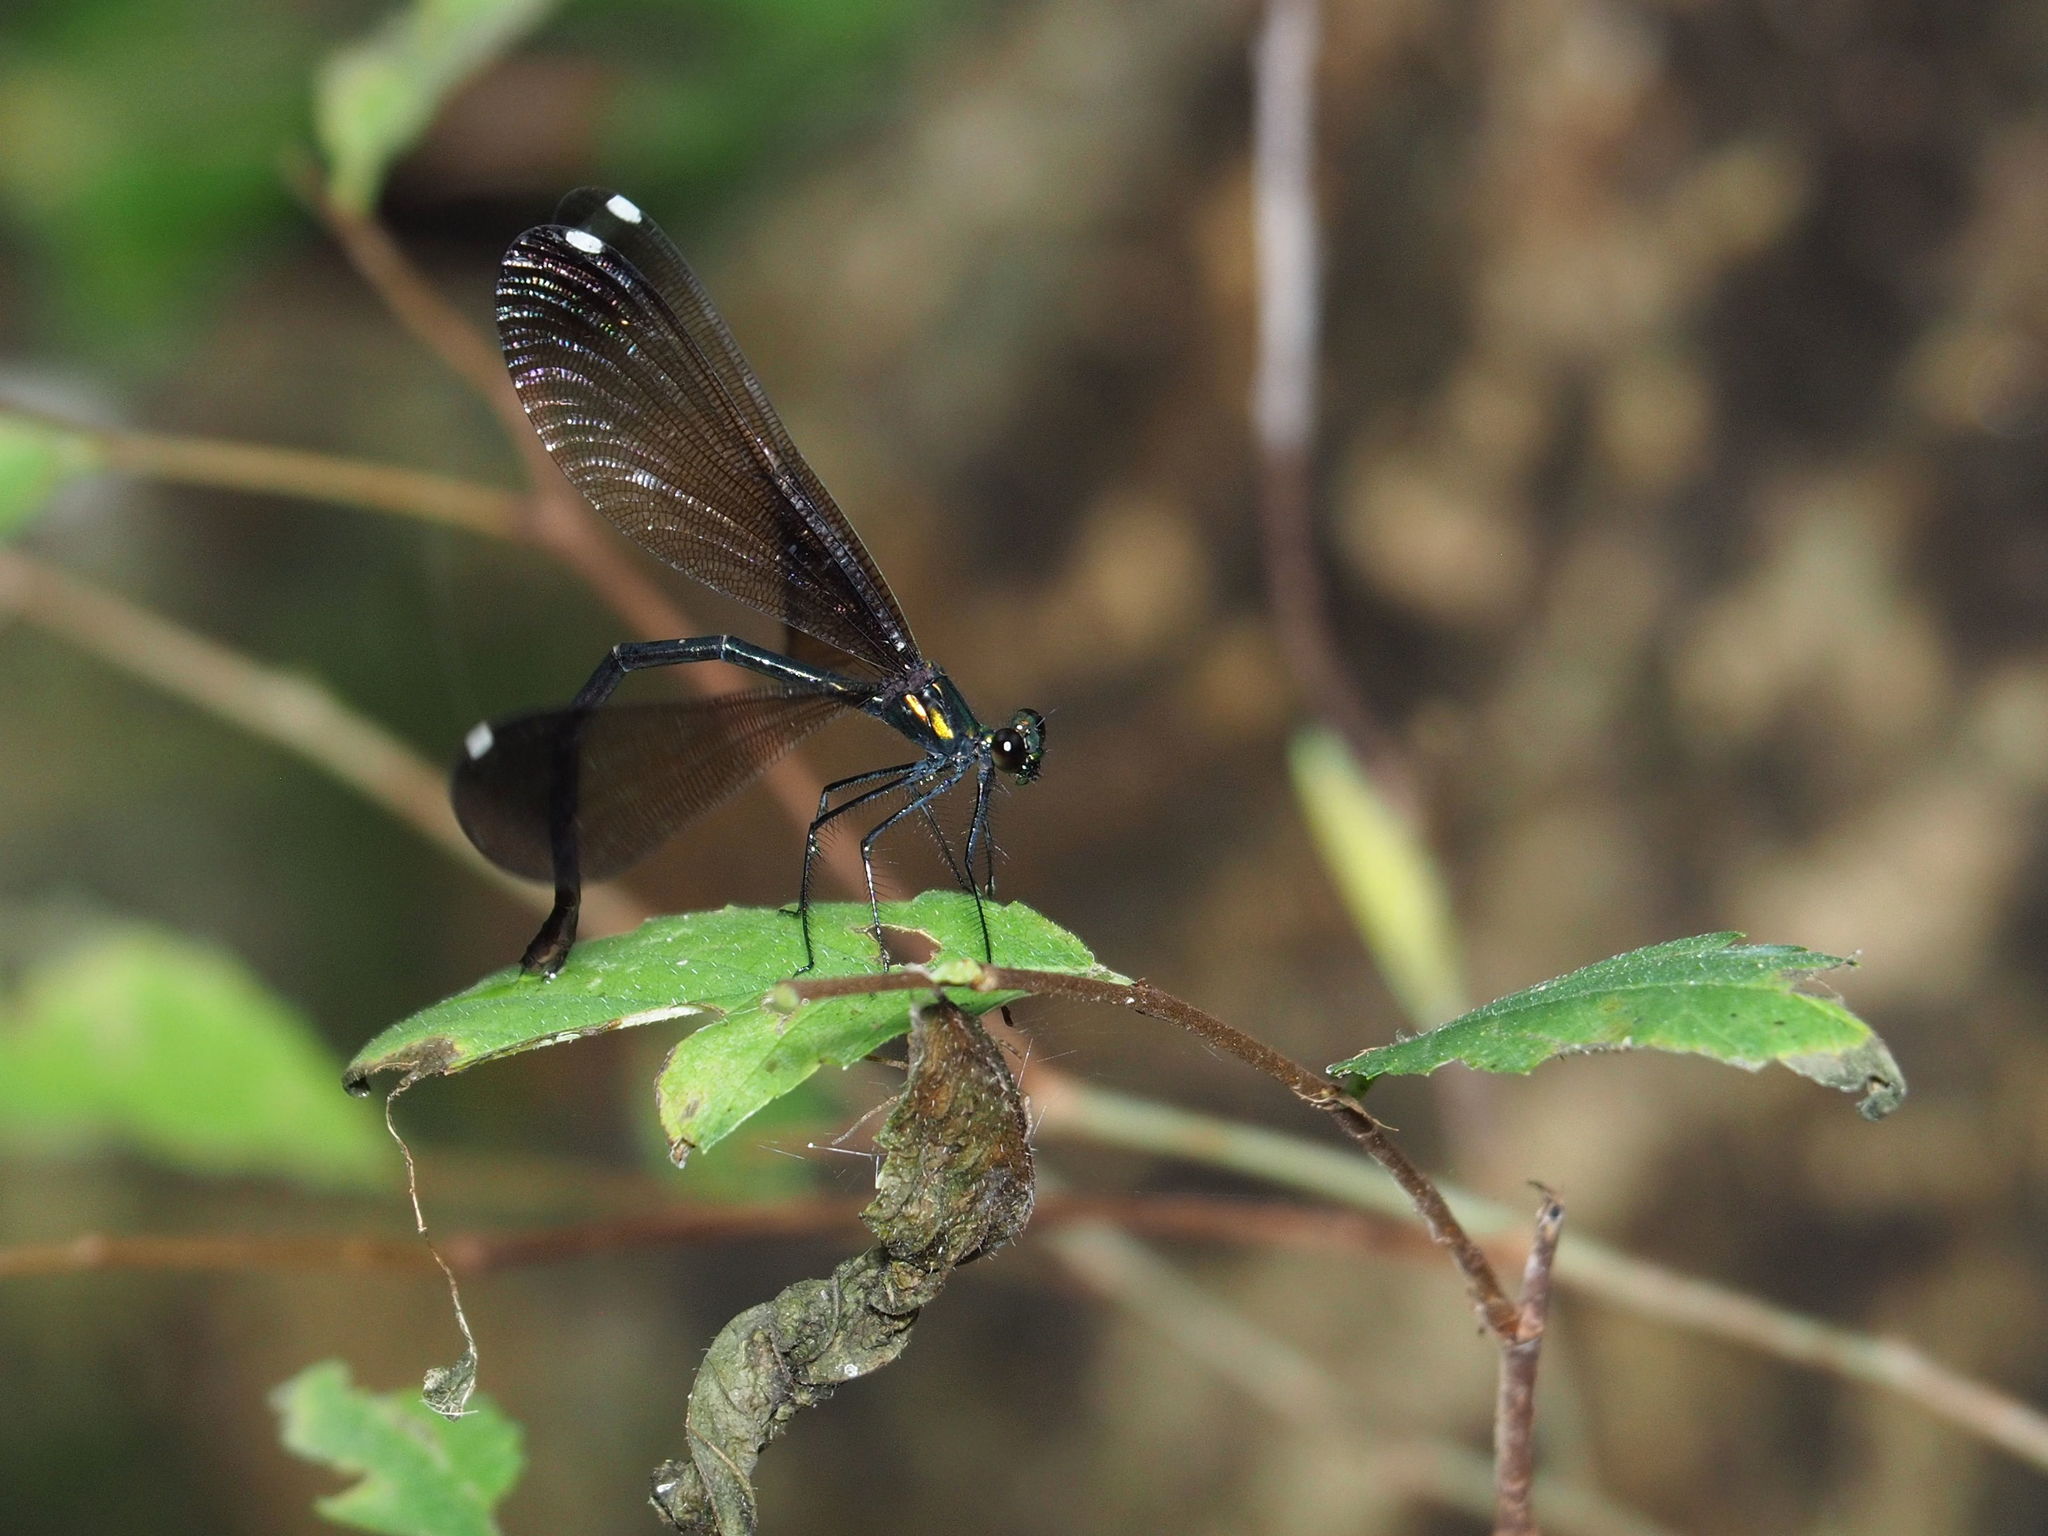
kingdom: Animalia
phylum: Arthropoda
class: Insecta
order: Odonata
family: Calopterygidae
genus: Calopteryx
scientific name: Calopteryx maculata
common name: Ebony jewelwing
